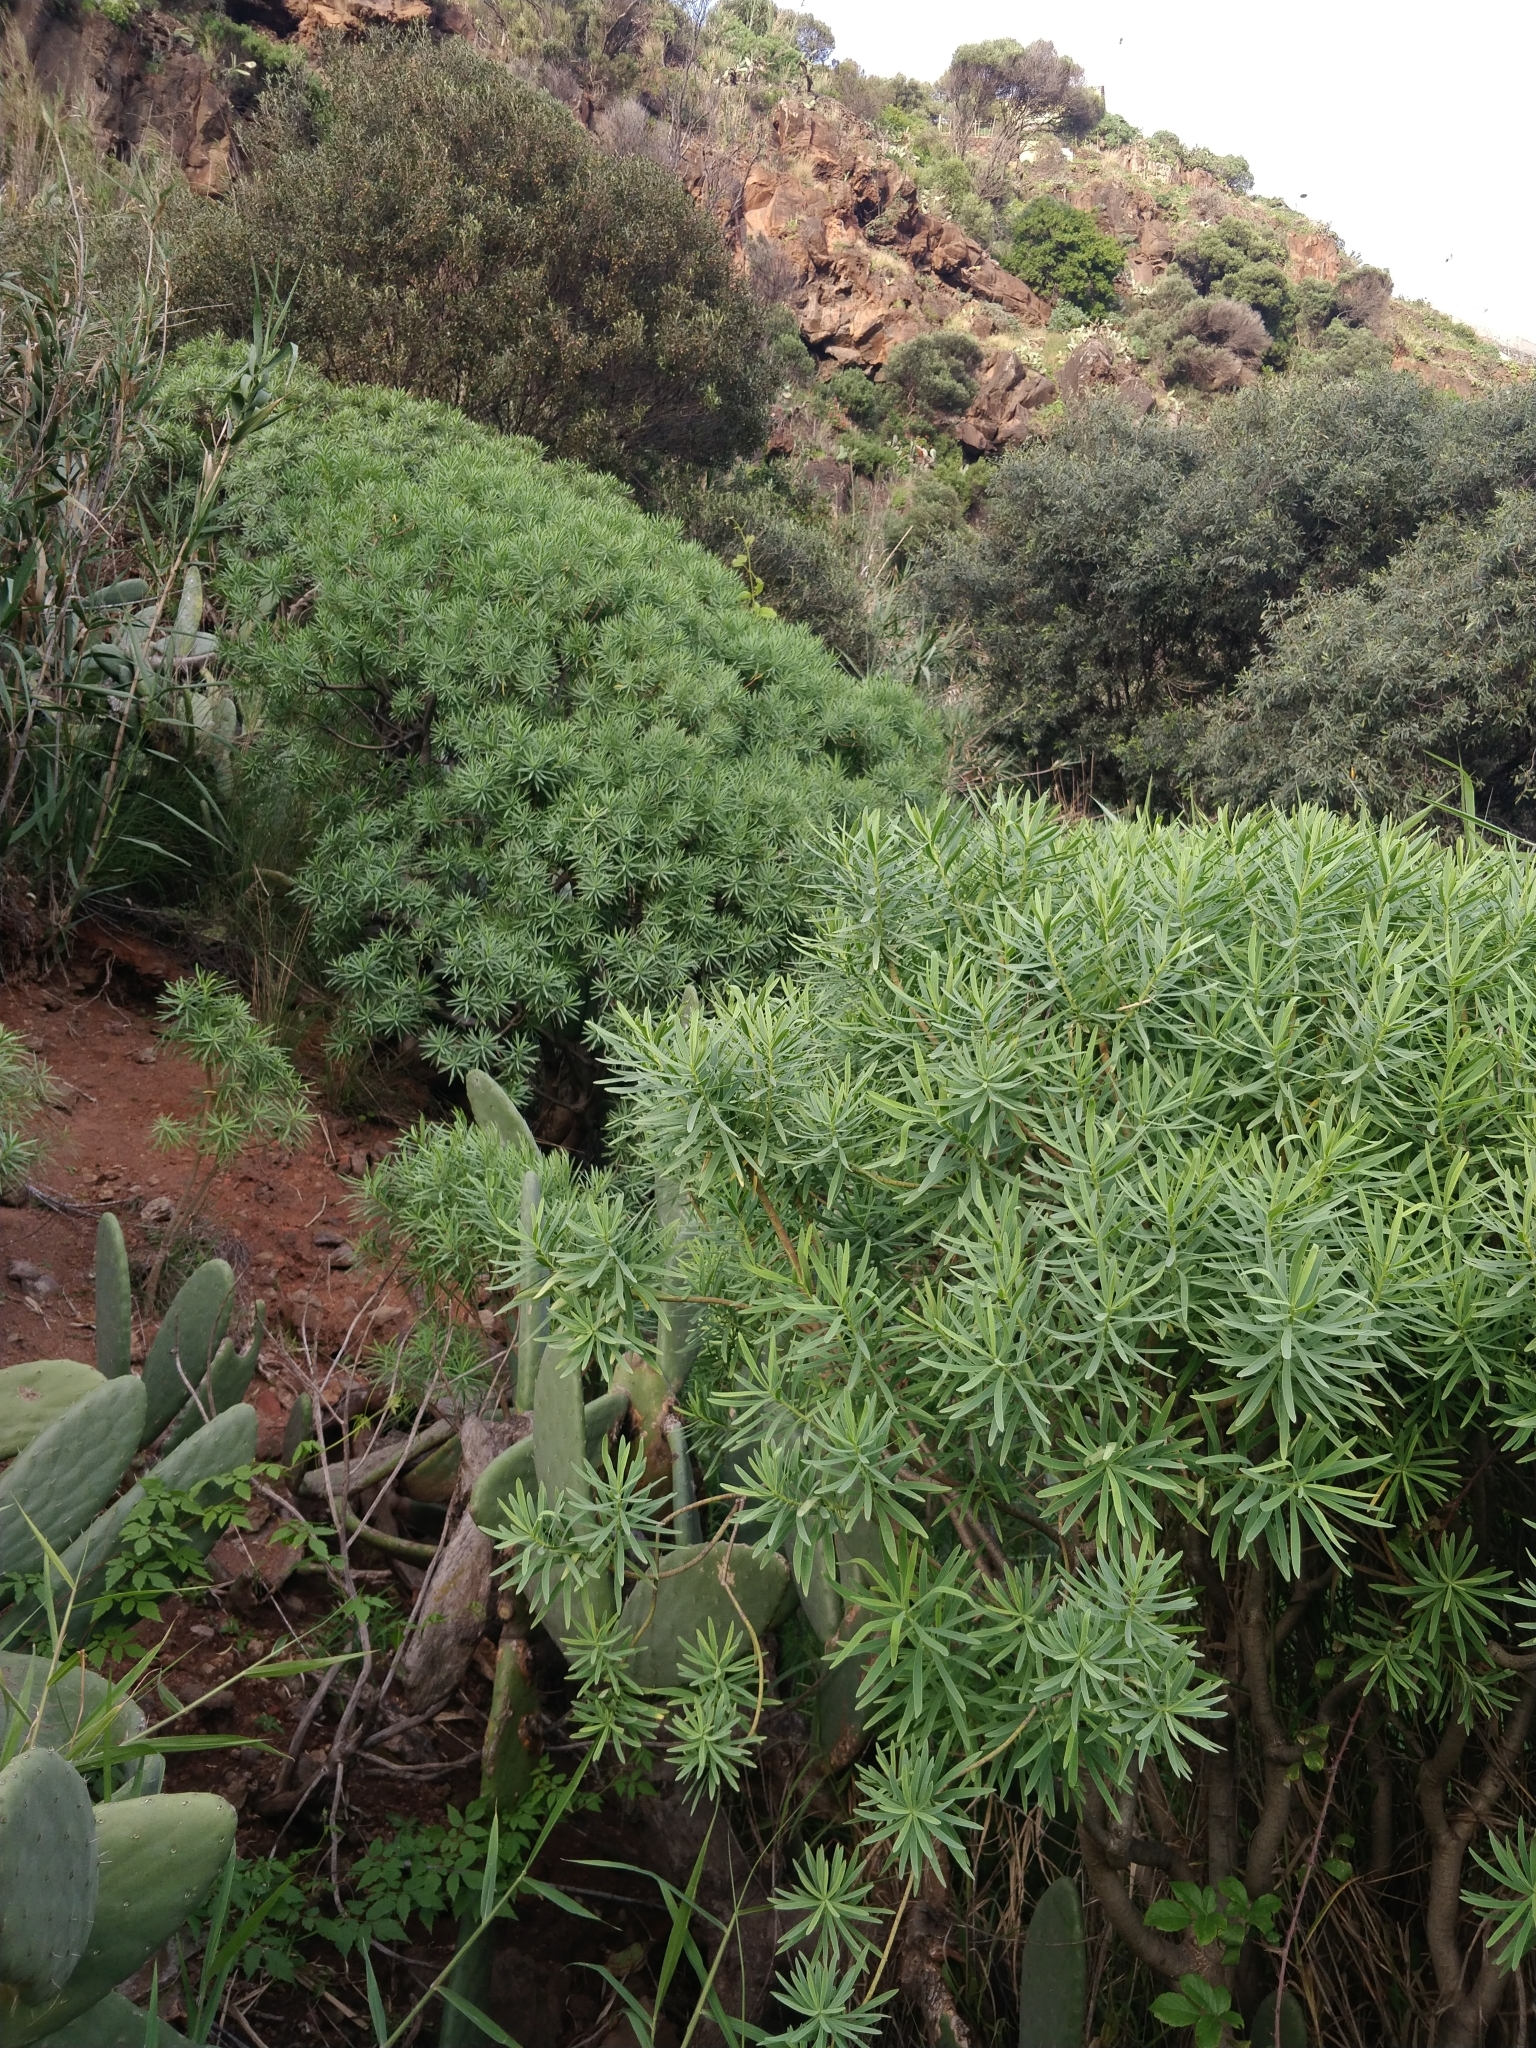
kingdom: Plantae
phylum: Tracheophyta
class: Magnoliopsida
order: Malpighiales
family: Euphorbiaceae
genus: Euphorbia
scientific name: Euphorbia piscatoria
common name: Fish-stunning spurge
